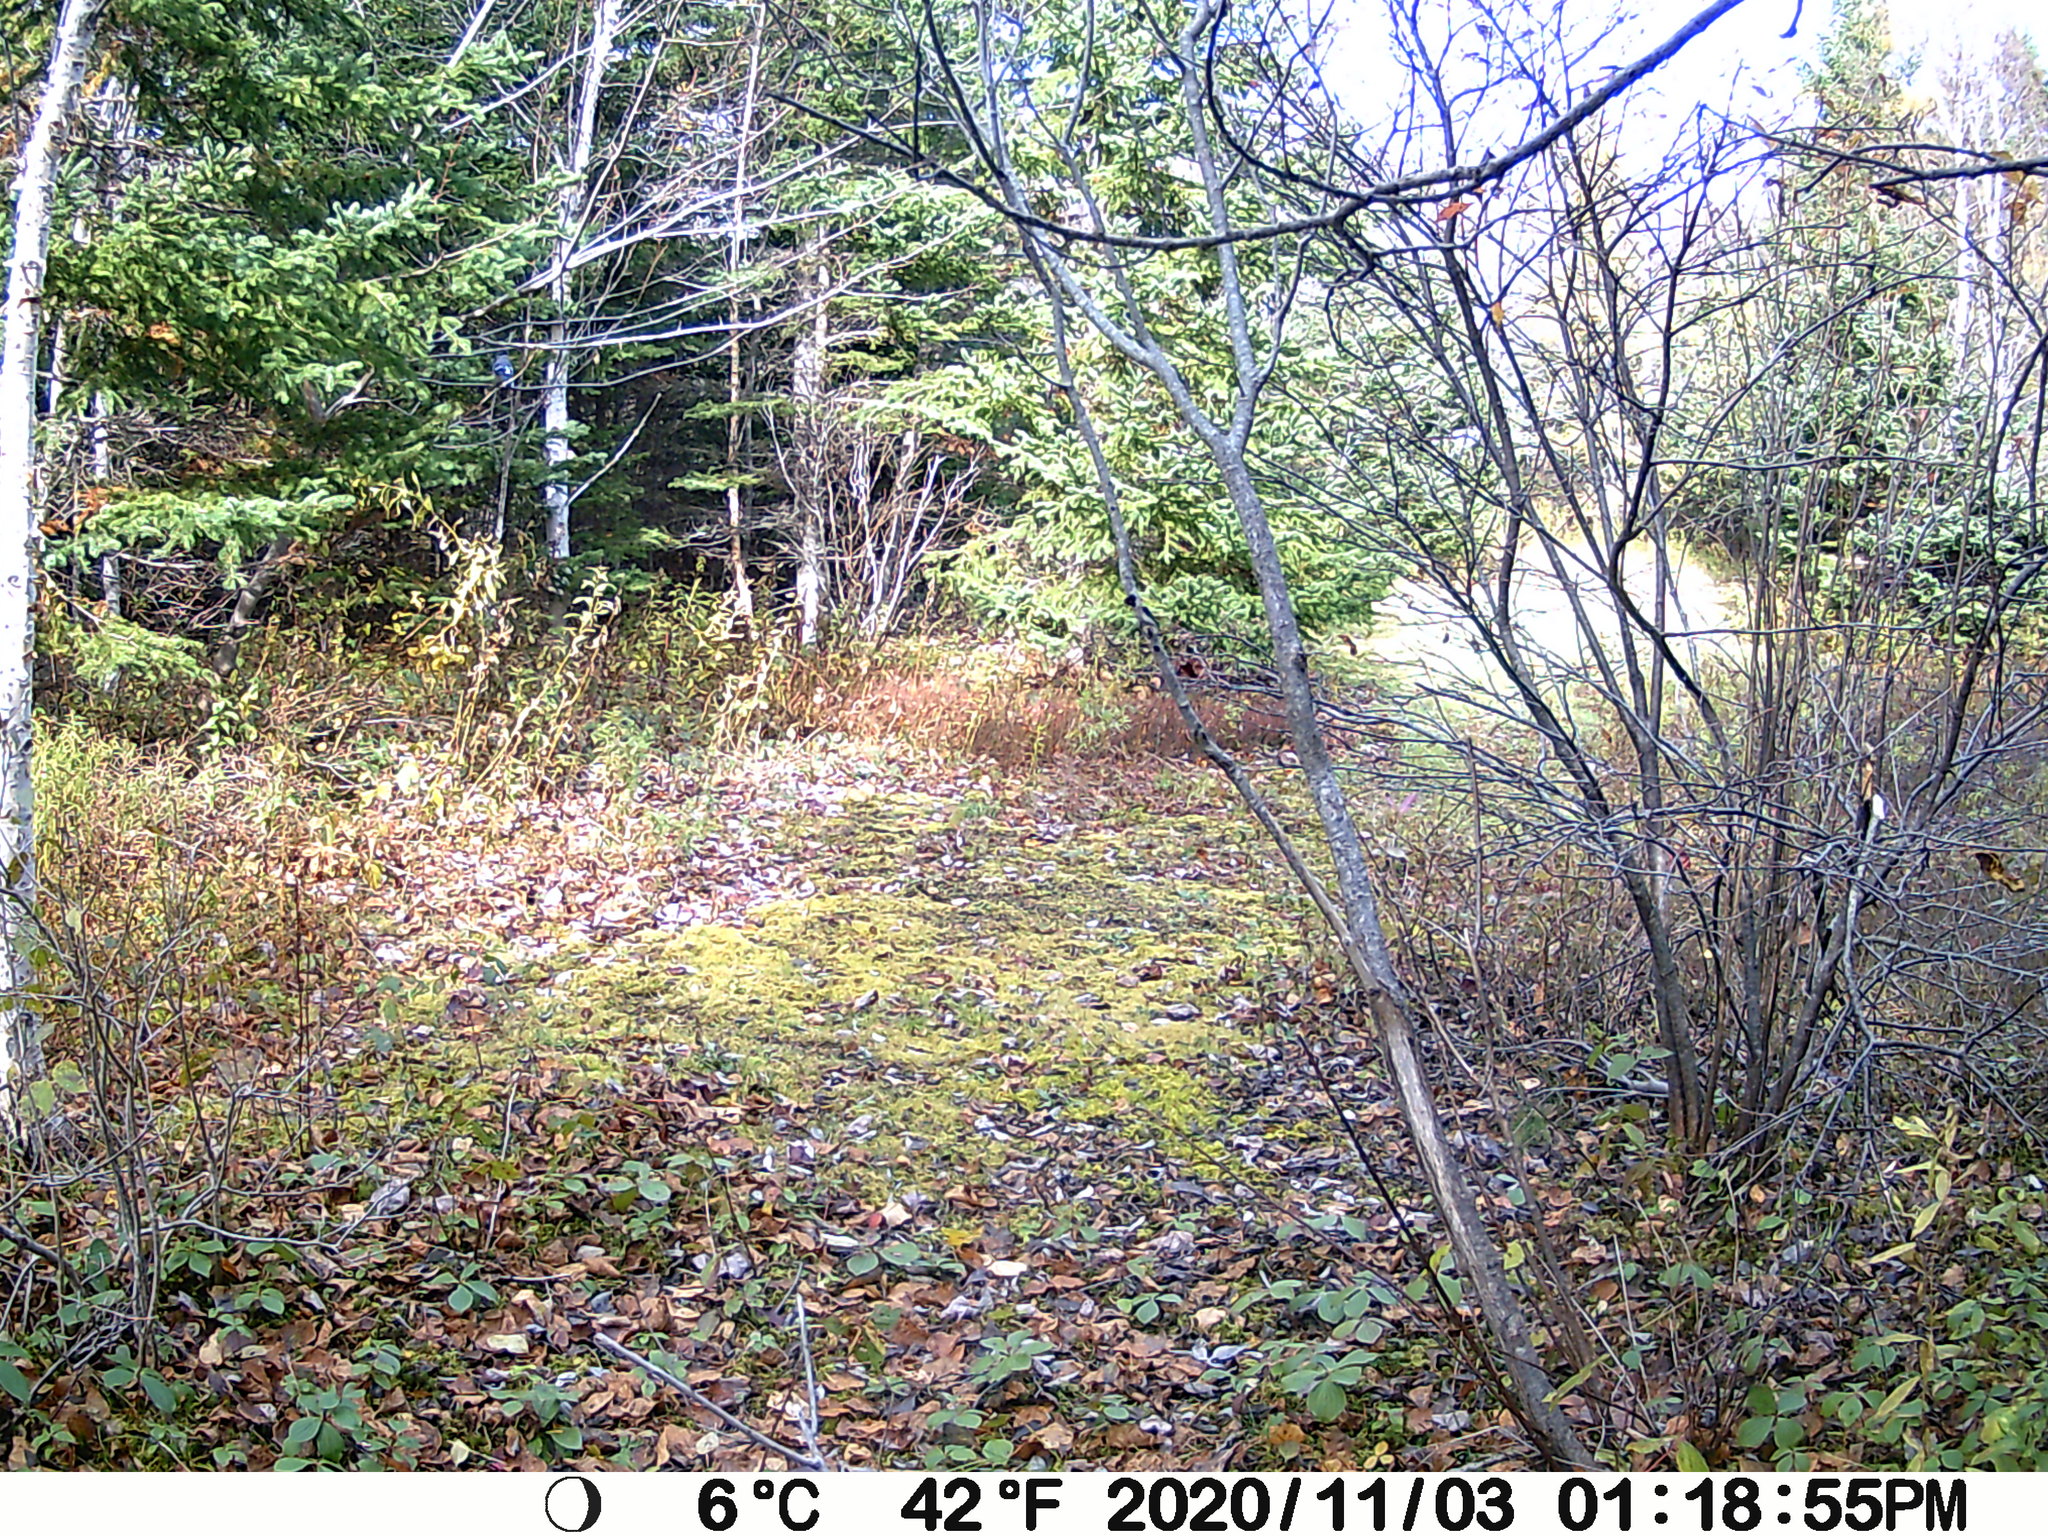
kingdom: Animalia
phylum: Chordata
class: Aves
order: Passeriformes
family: Corvidae
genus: Cyanocitta
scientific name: Cyanocitta cristata
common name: Blue jay
